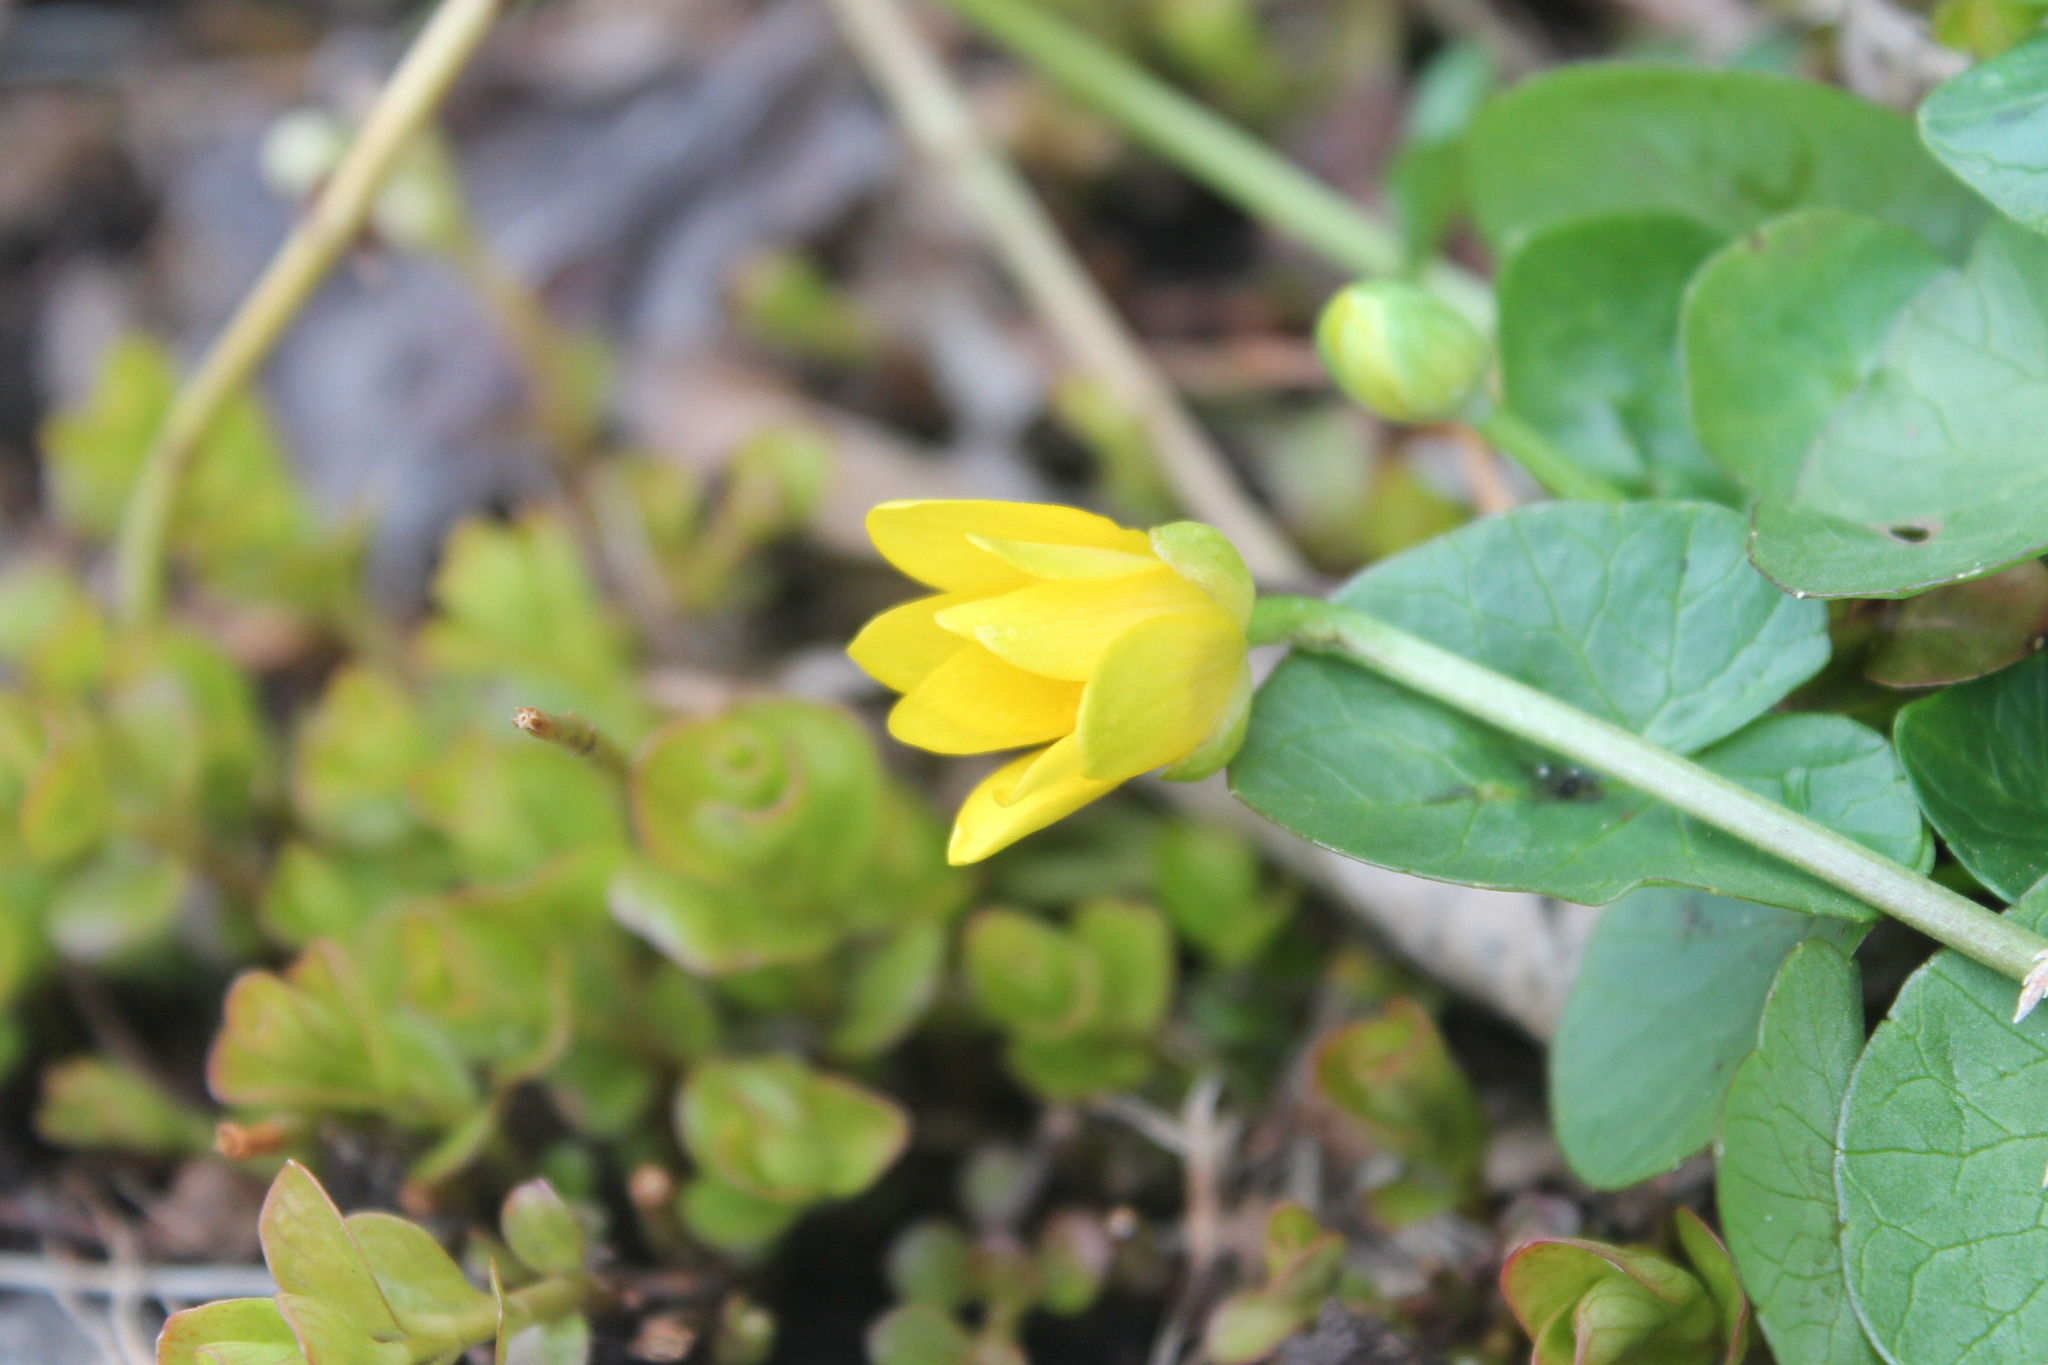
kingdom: Plantae
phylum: Tracheophyta
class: Magnoliopsida
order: Ranunculales
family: Ranunculaceae
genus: Ficaria
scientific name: Ficaria verna
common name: Lesser celandine
